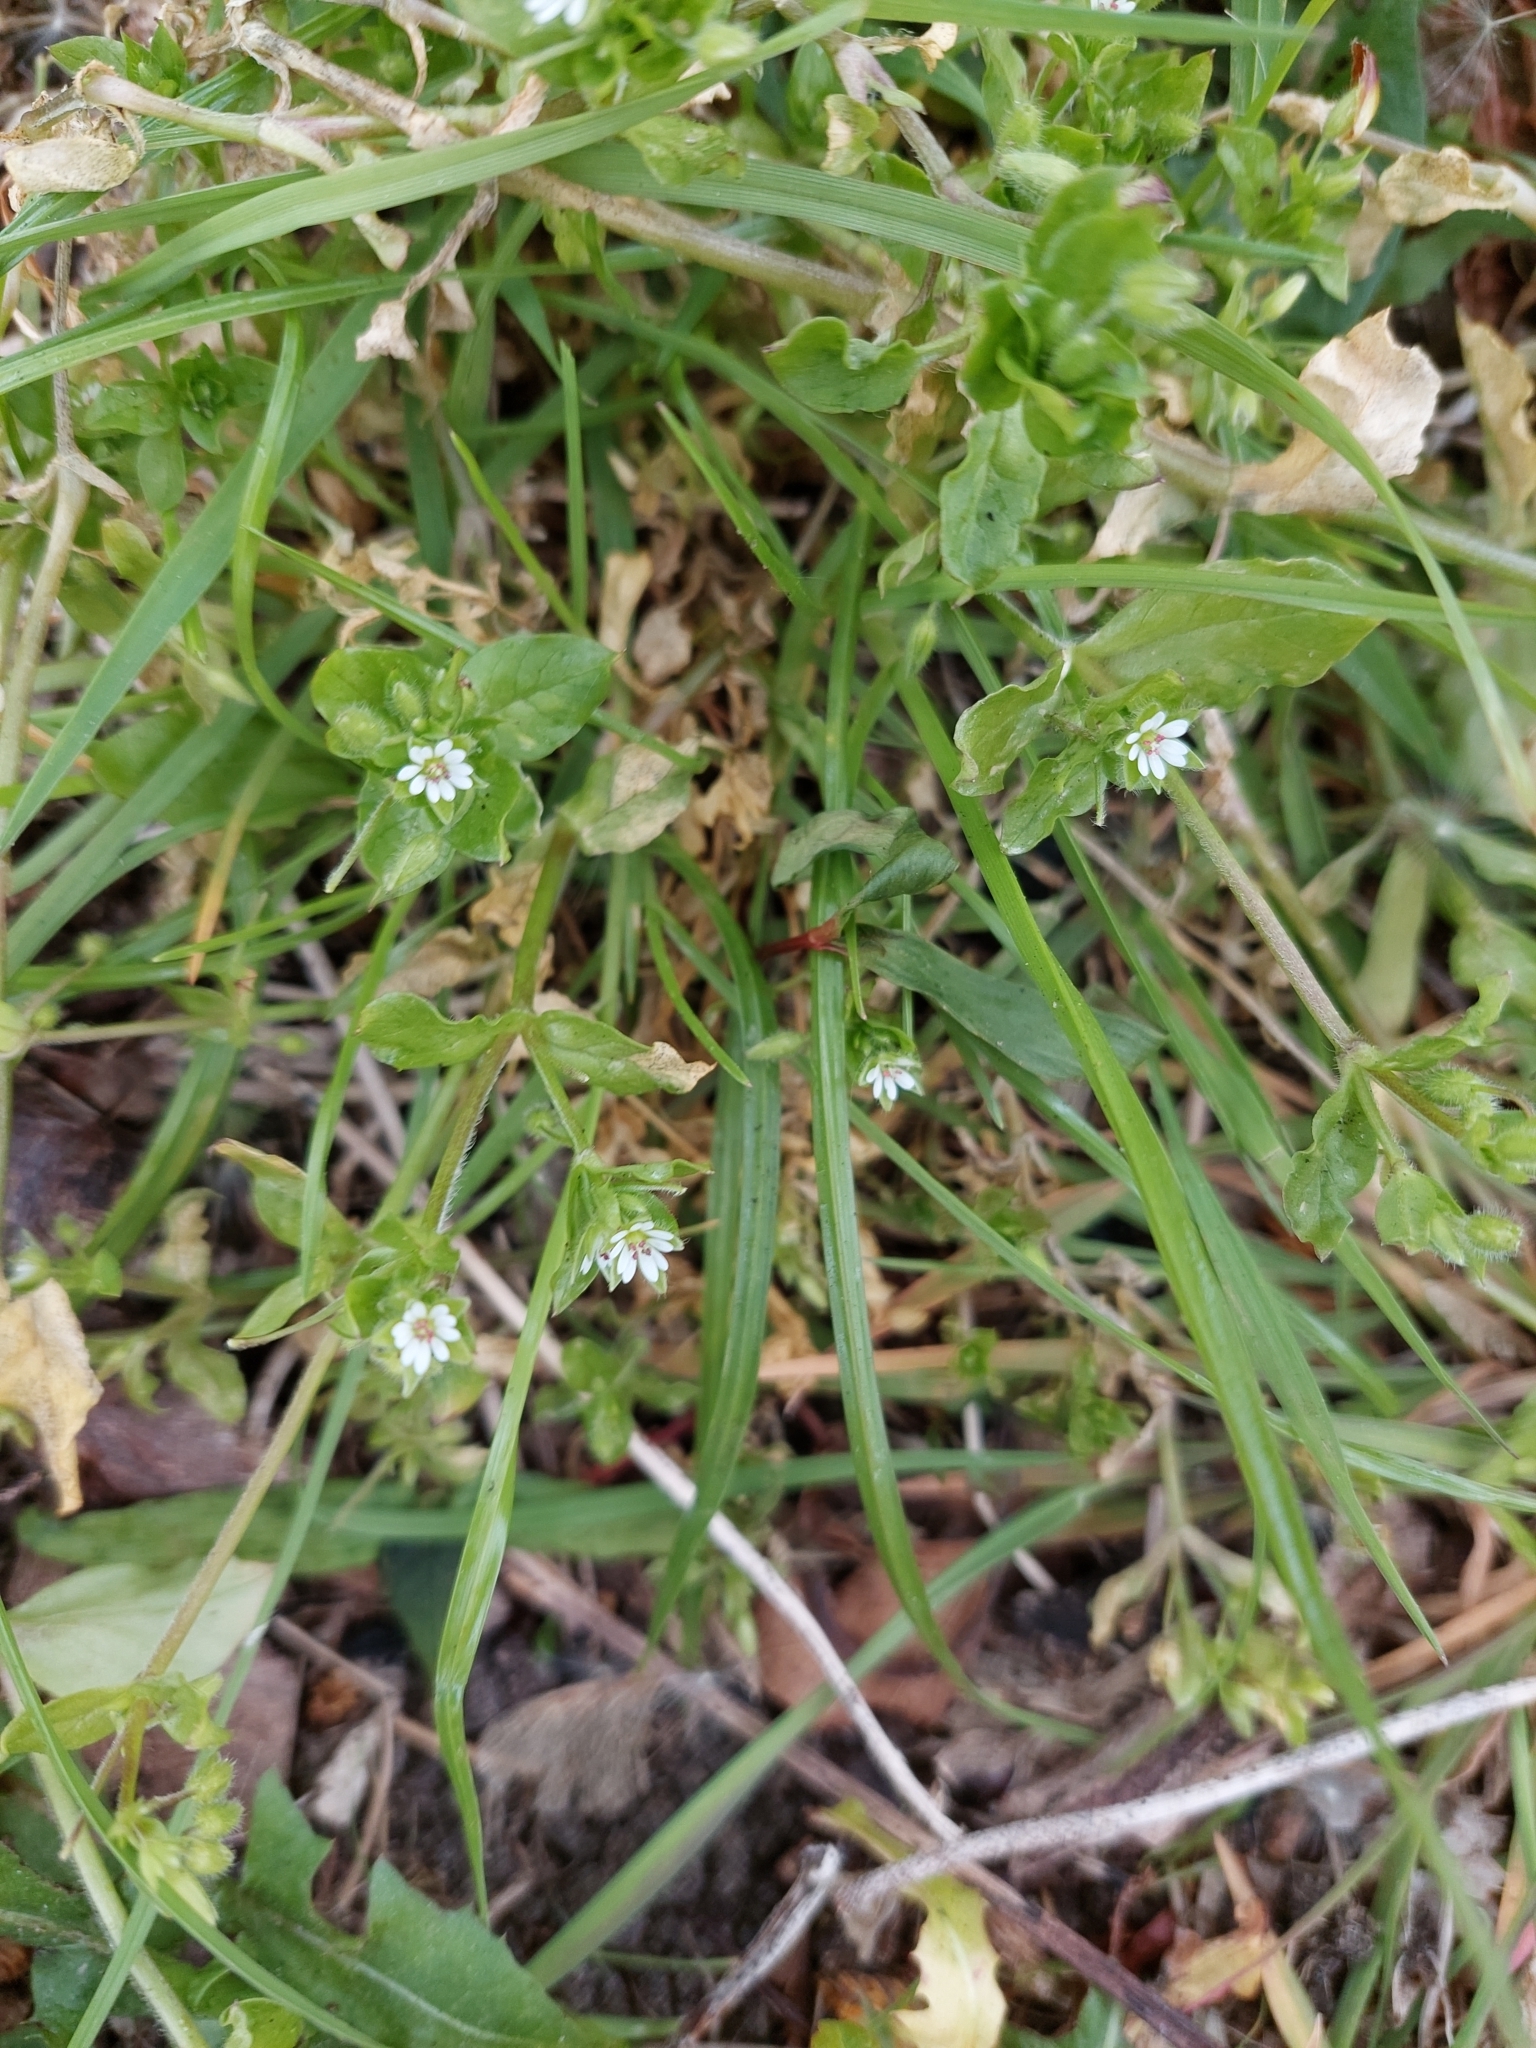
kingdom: Plantae
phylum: Tracheophyta
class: Magnoliopsida
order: Caryophyllales
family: Caryophyllaceae
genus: Stellaria
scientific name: Stellaria media
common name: Common chickweed
